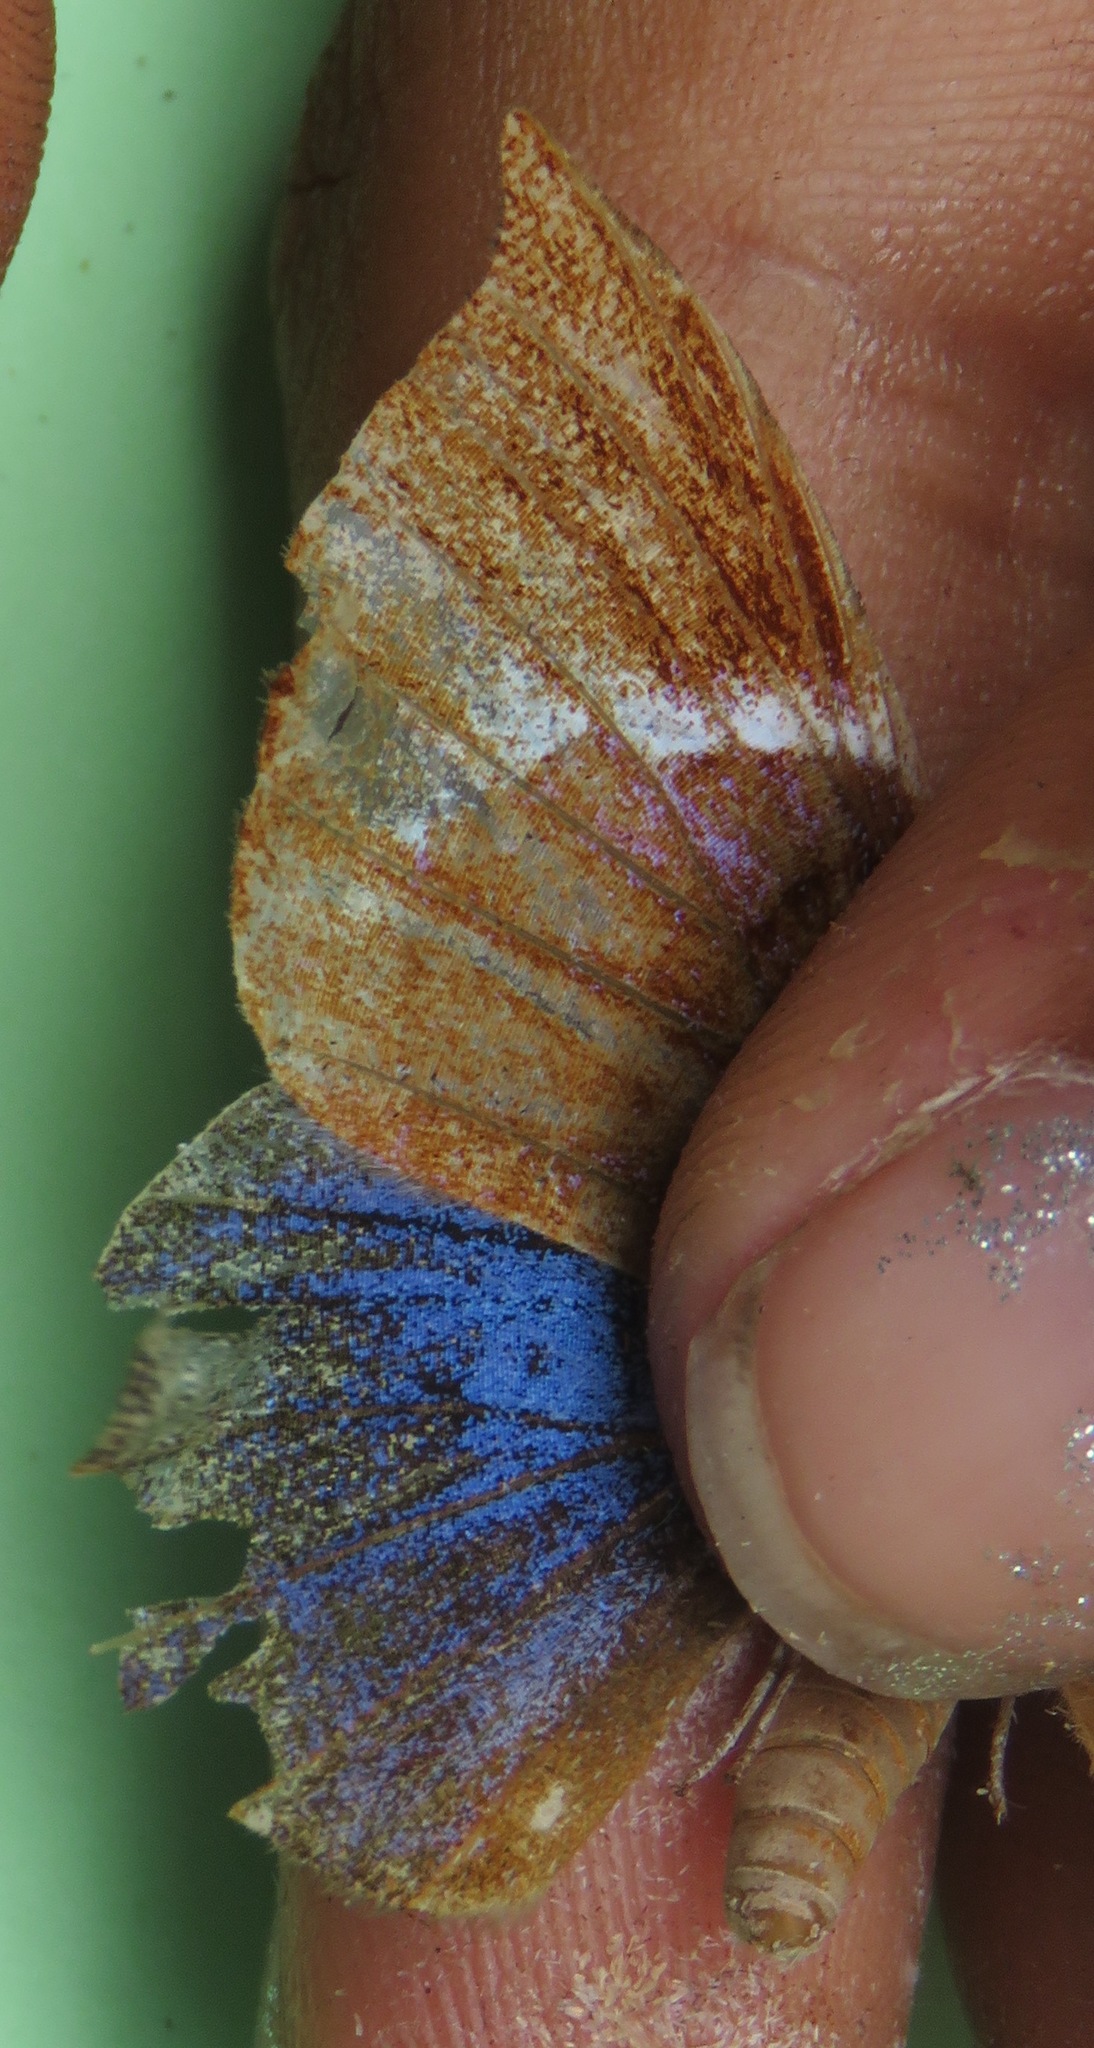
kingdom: Animalia
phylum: Arthropoda
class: Insecta
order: Lepidoptera
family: Riodinidae
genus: Behemothia
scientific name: Behemothia godmanii
